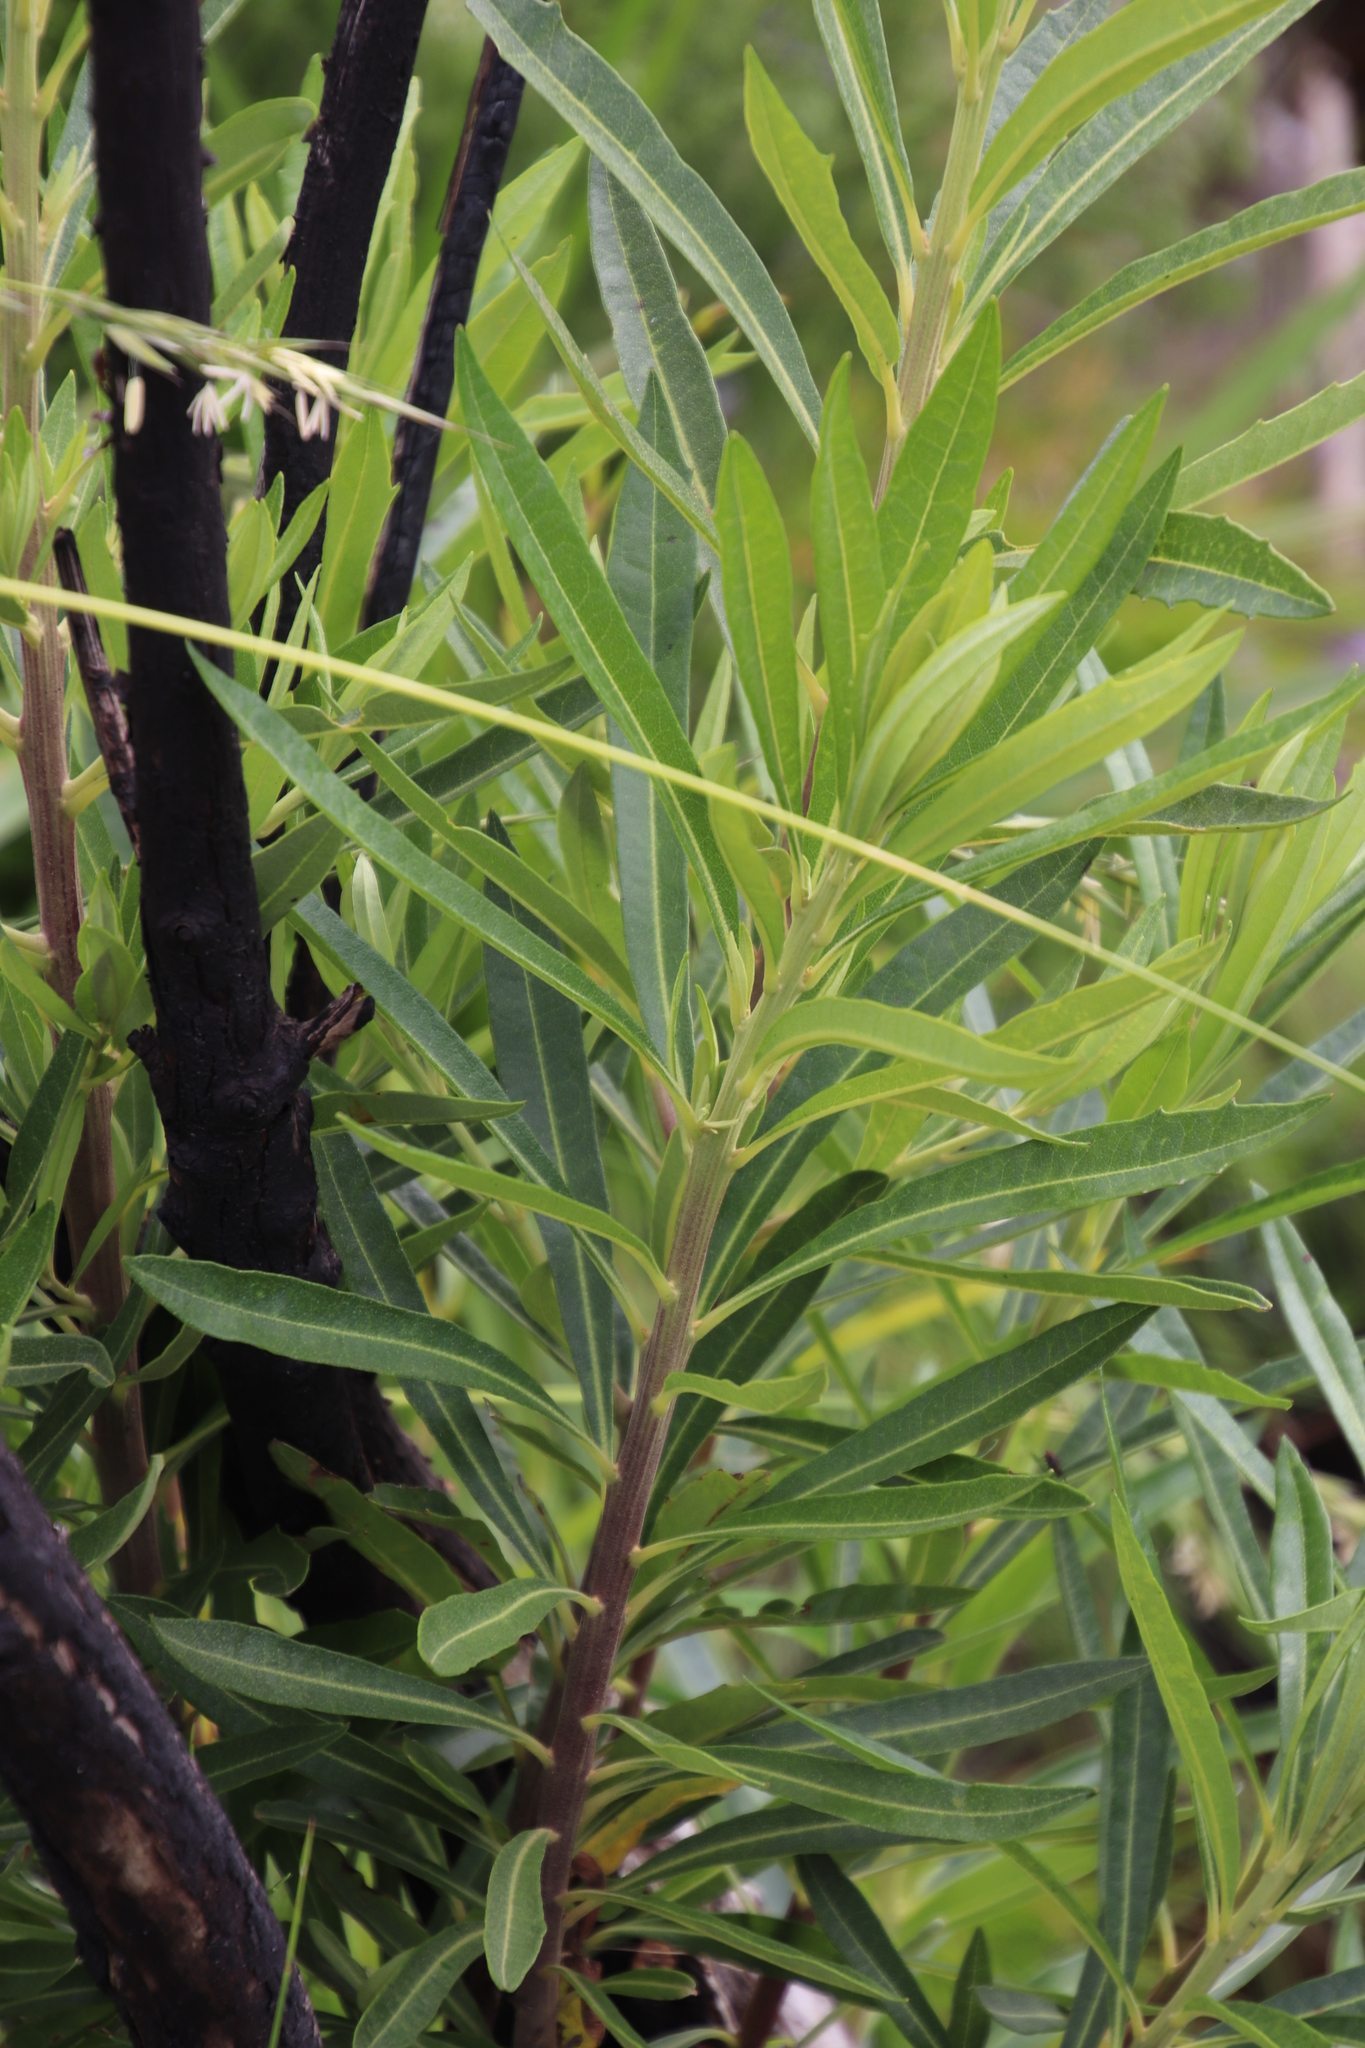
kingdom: Plantae
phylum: Tracheophyta
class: Magnoliopsida
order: Asterales
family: Asteraceae
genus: Brachylaena
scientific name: Brachylaena neriifolia
